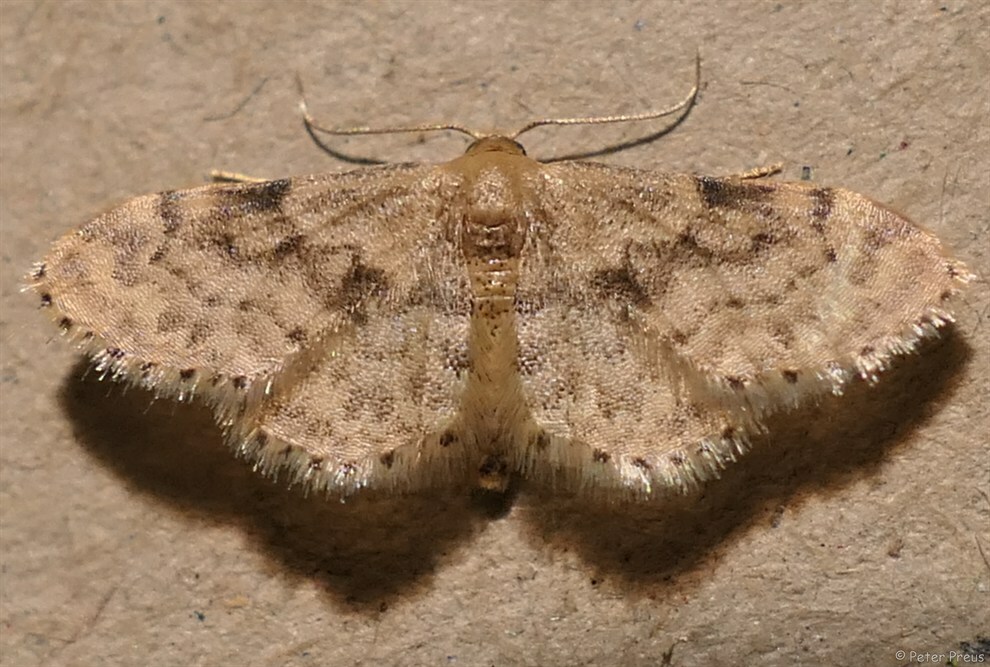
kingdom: Animalia
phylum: Arthropoda
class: Insecta
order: Lepidoptera
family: Geometridae
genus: Idaea
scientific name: Idaea inquinata
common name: Rusty wave
